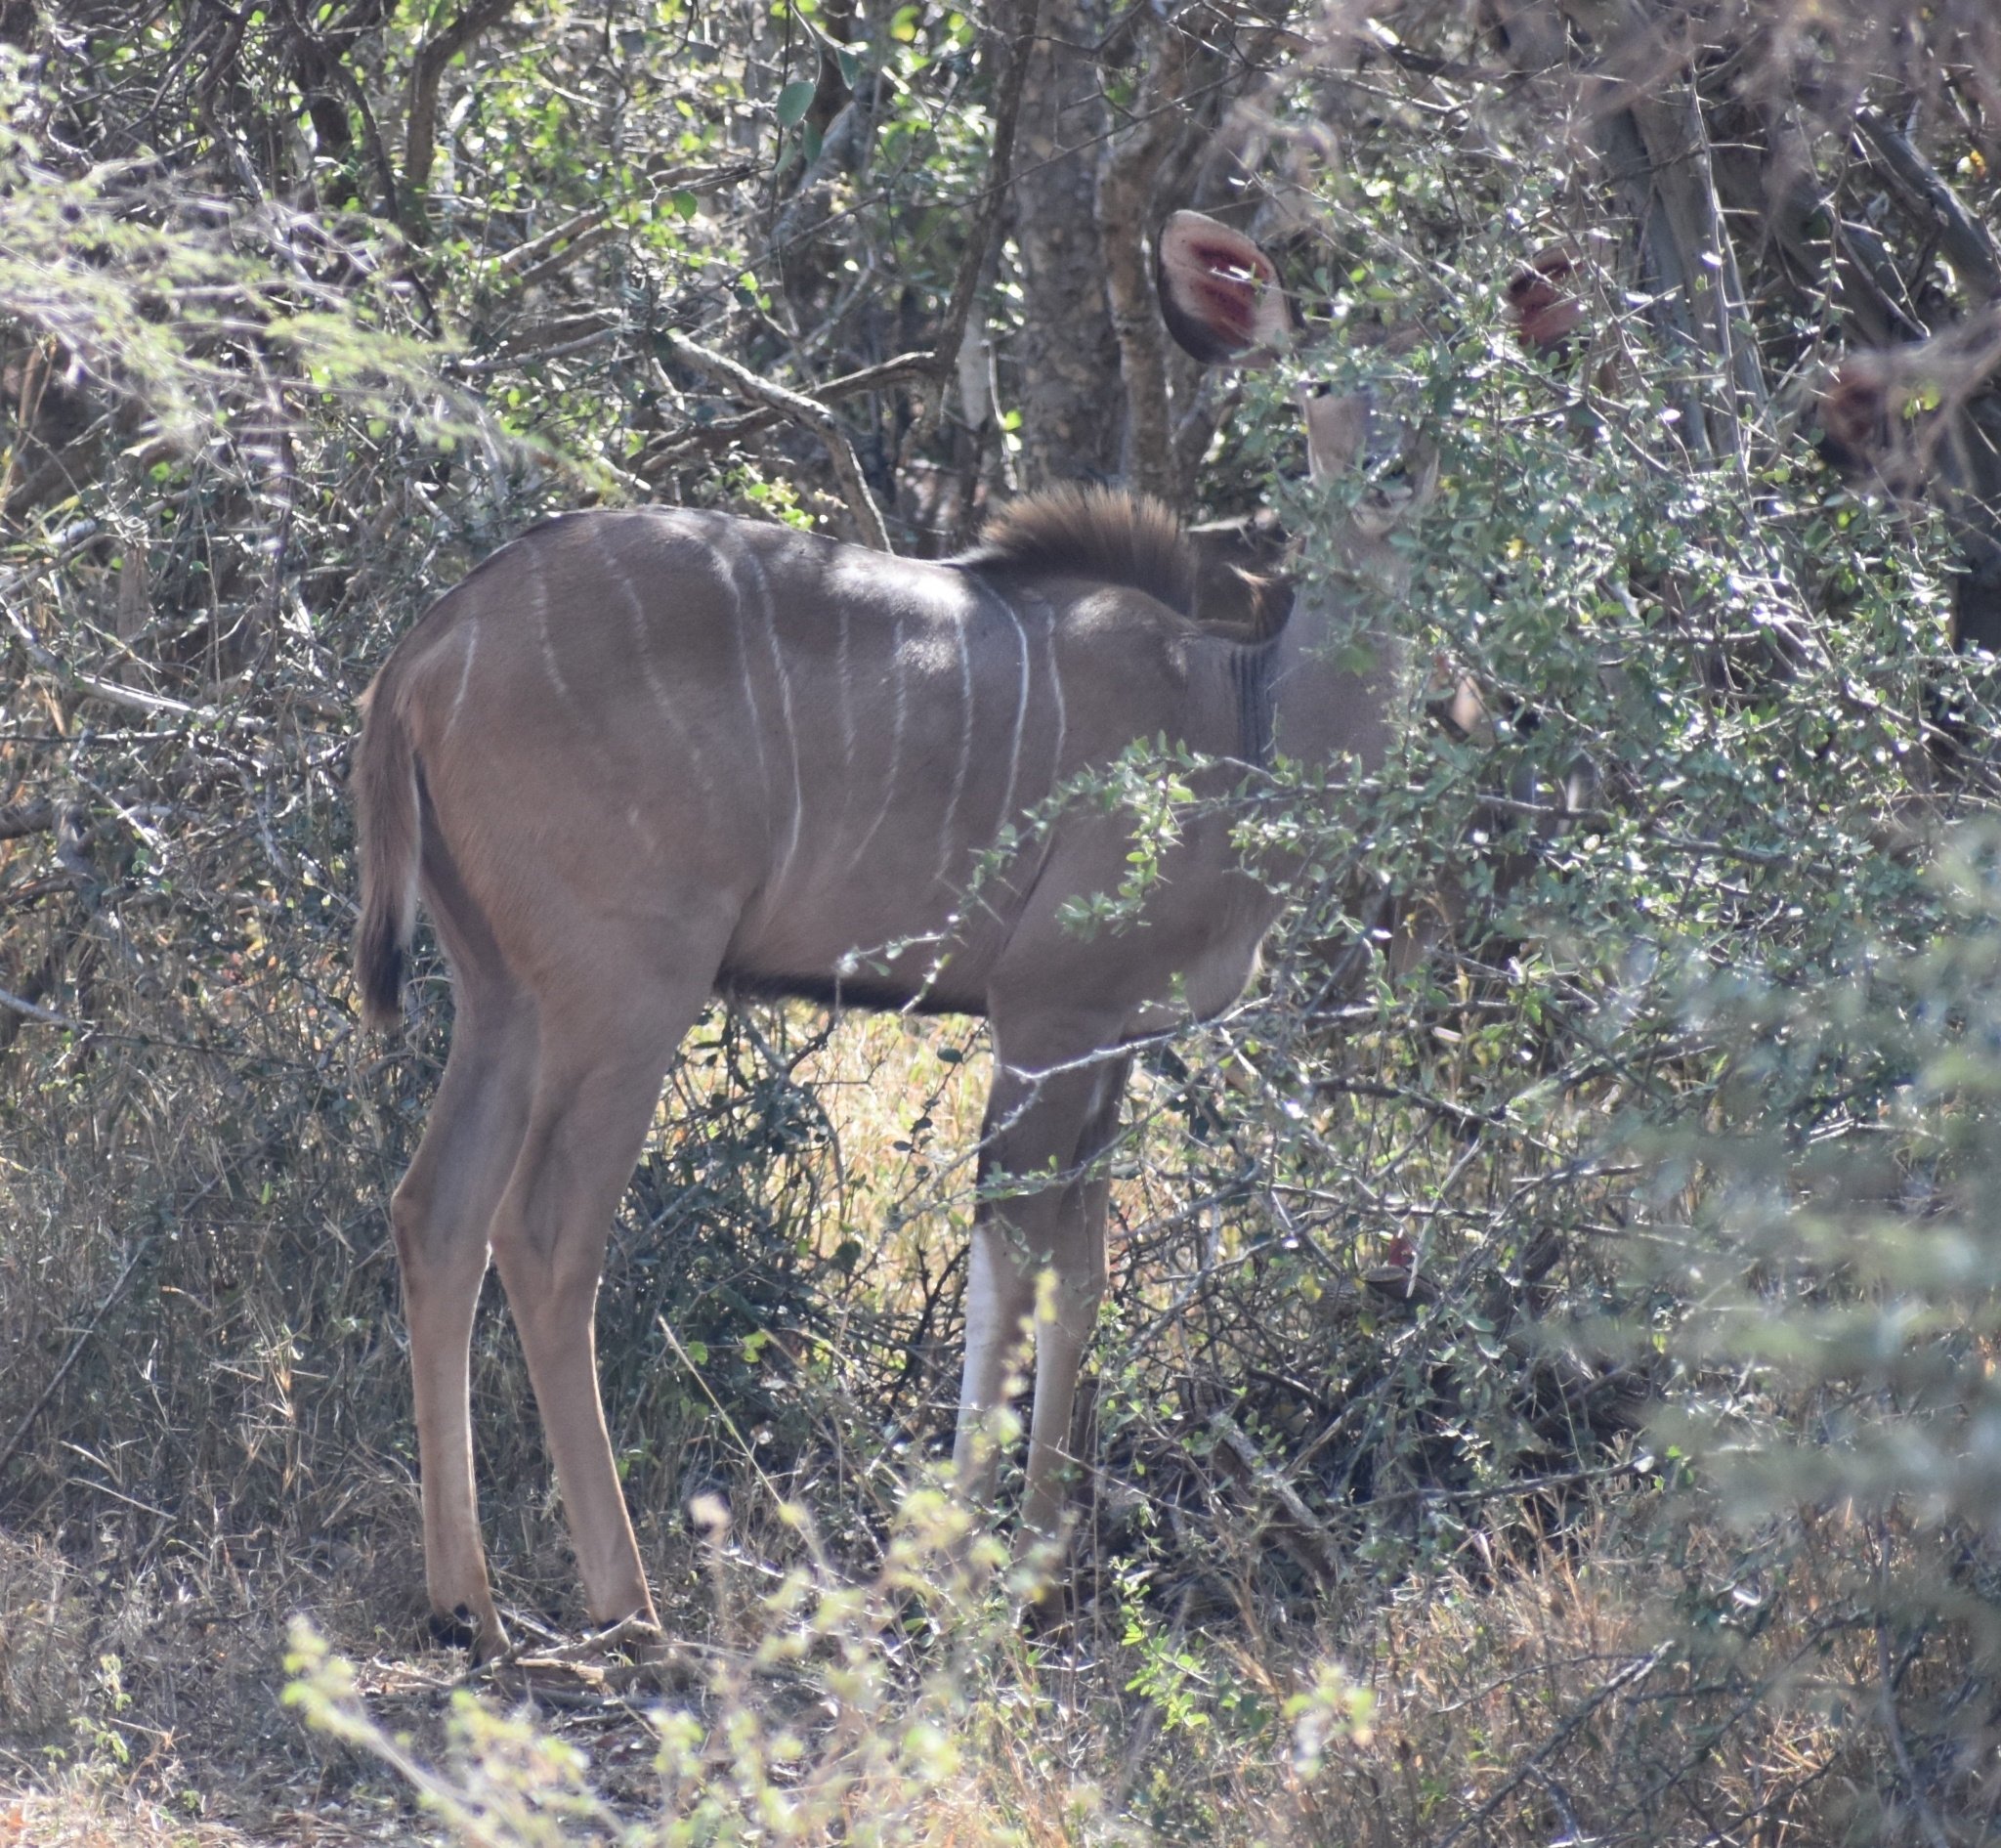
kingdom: Animalia
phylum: Chordata
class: Mammalia
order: Artiodactyla
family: Bovidae
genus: Tragelaphus
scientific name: Tragelaphus strepsiceros
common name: Greater kudu
